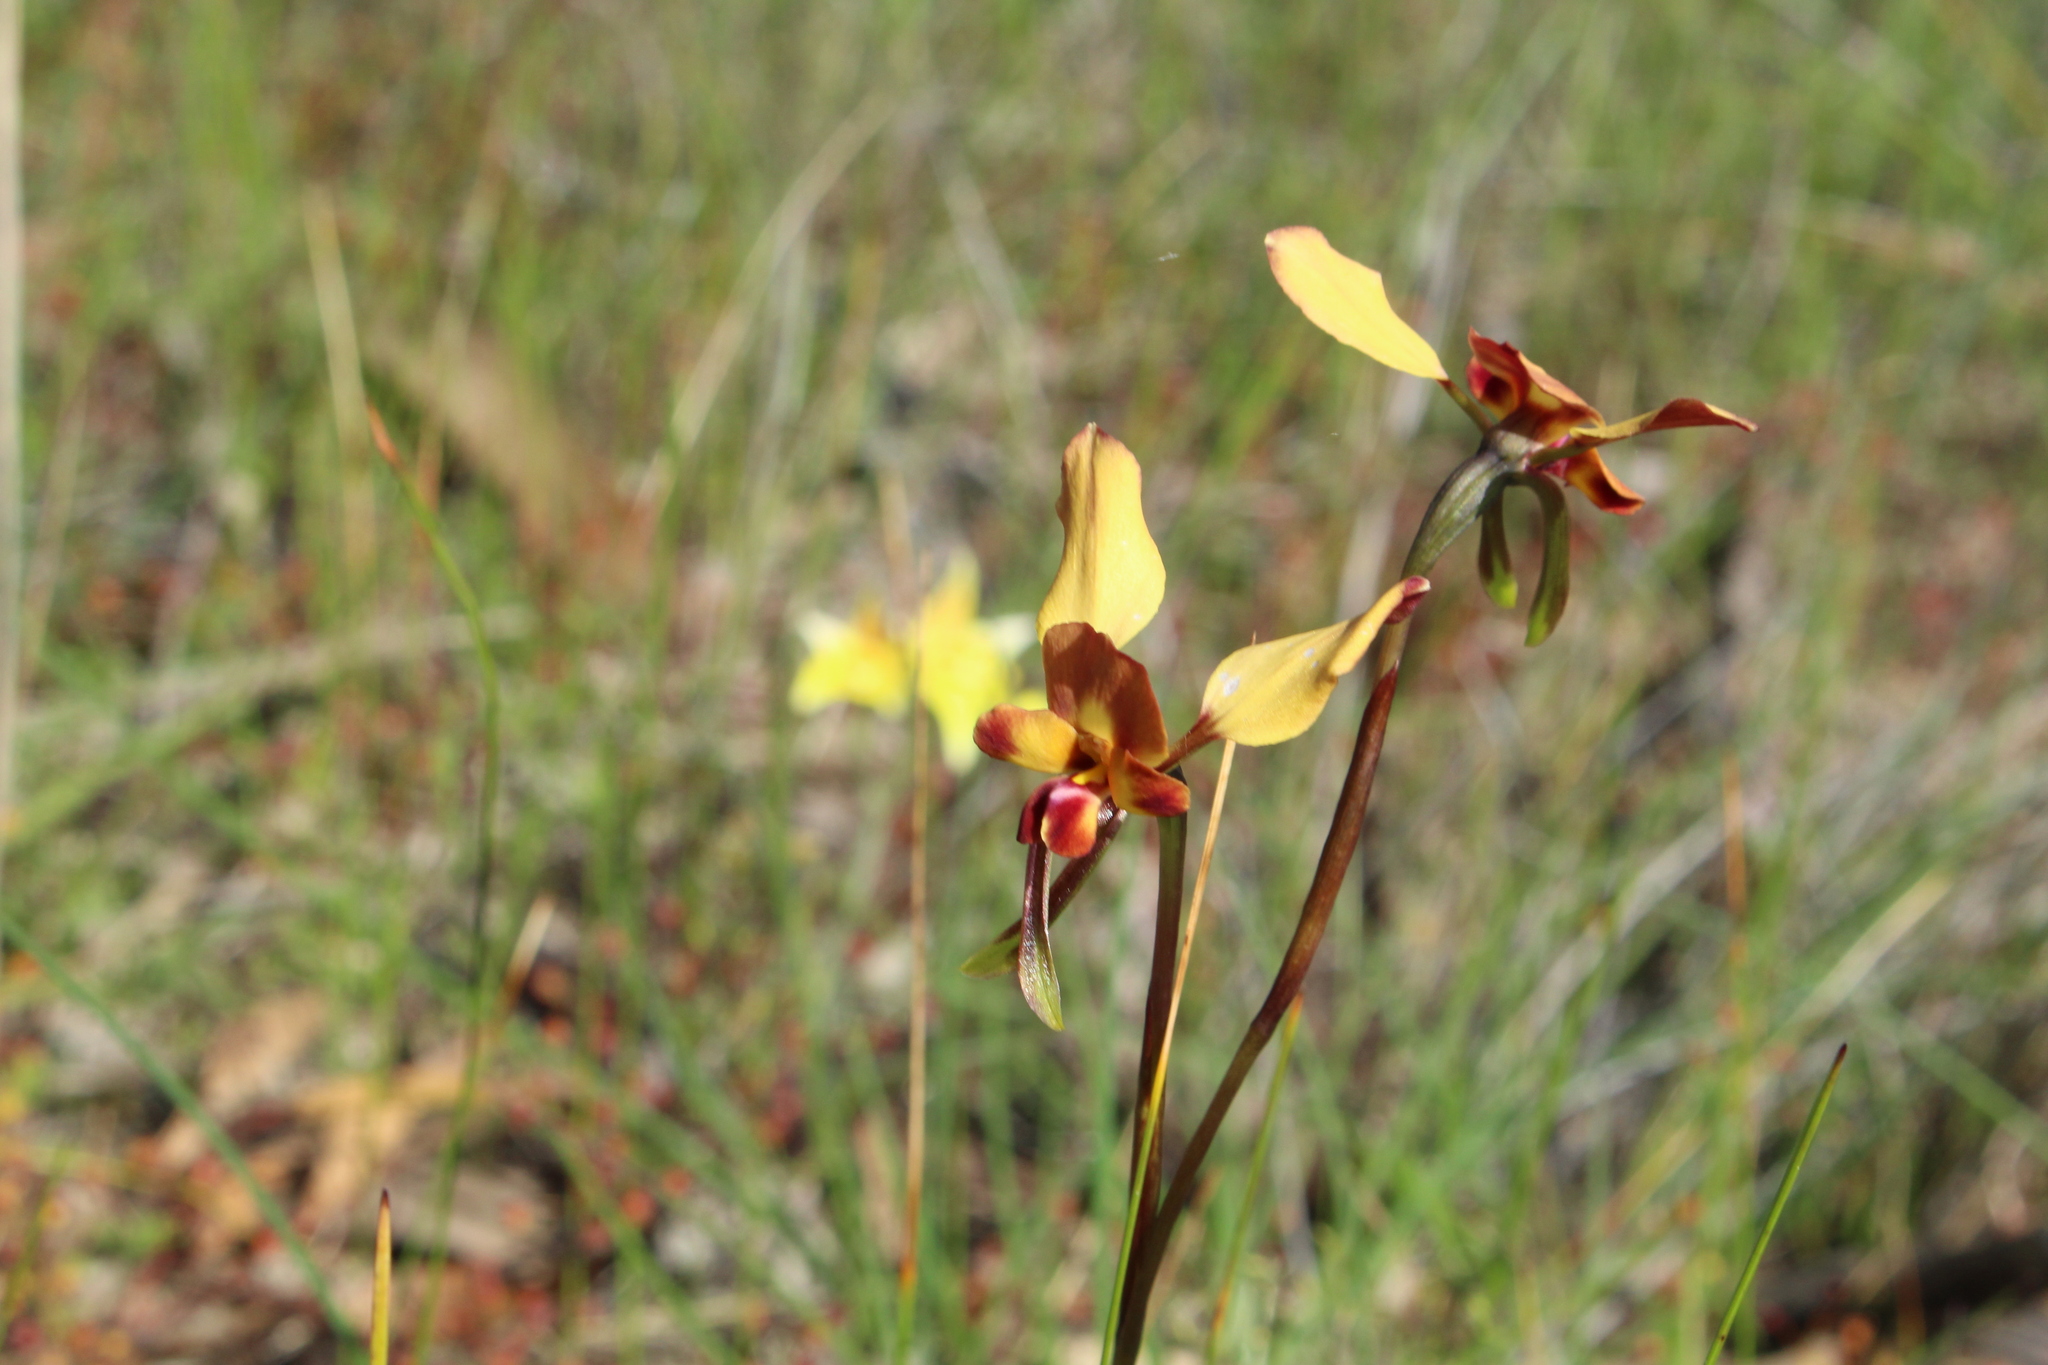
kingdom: Plantae
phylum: Tracheophyta
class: Liliopsida
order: Asparagales
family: Orchidaceae
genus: Diuris
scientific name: Diuris corymbosa
